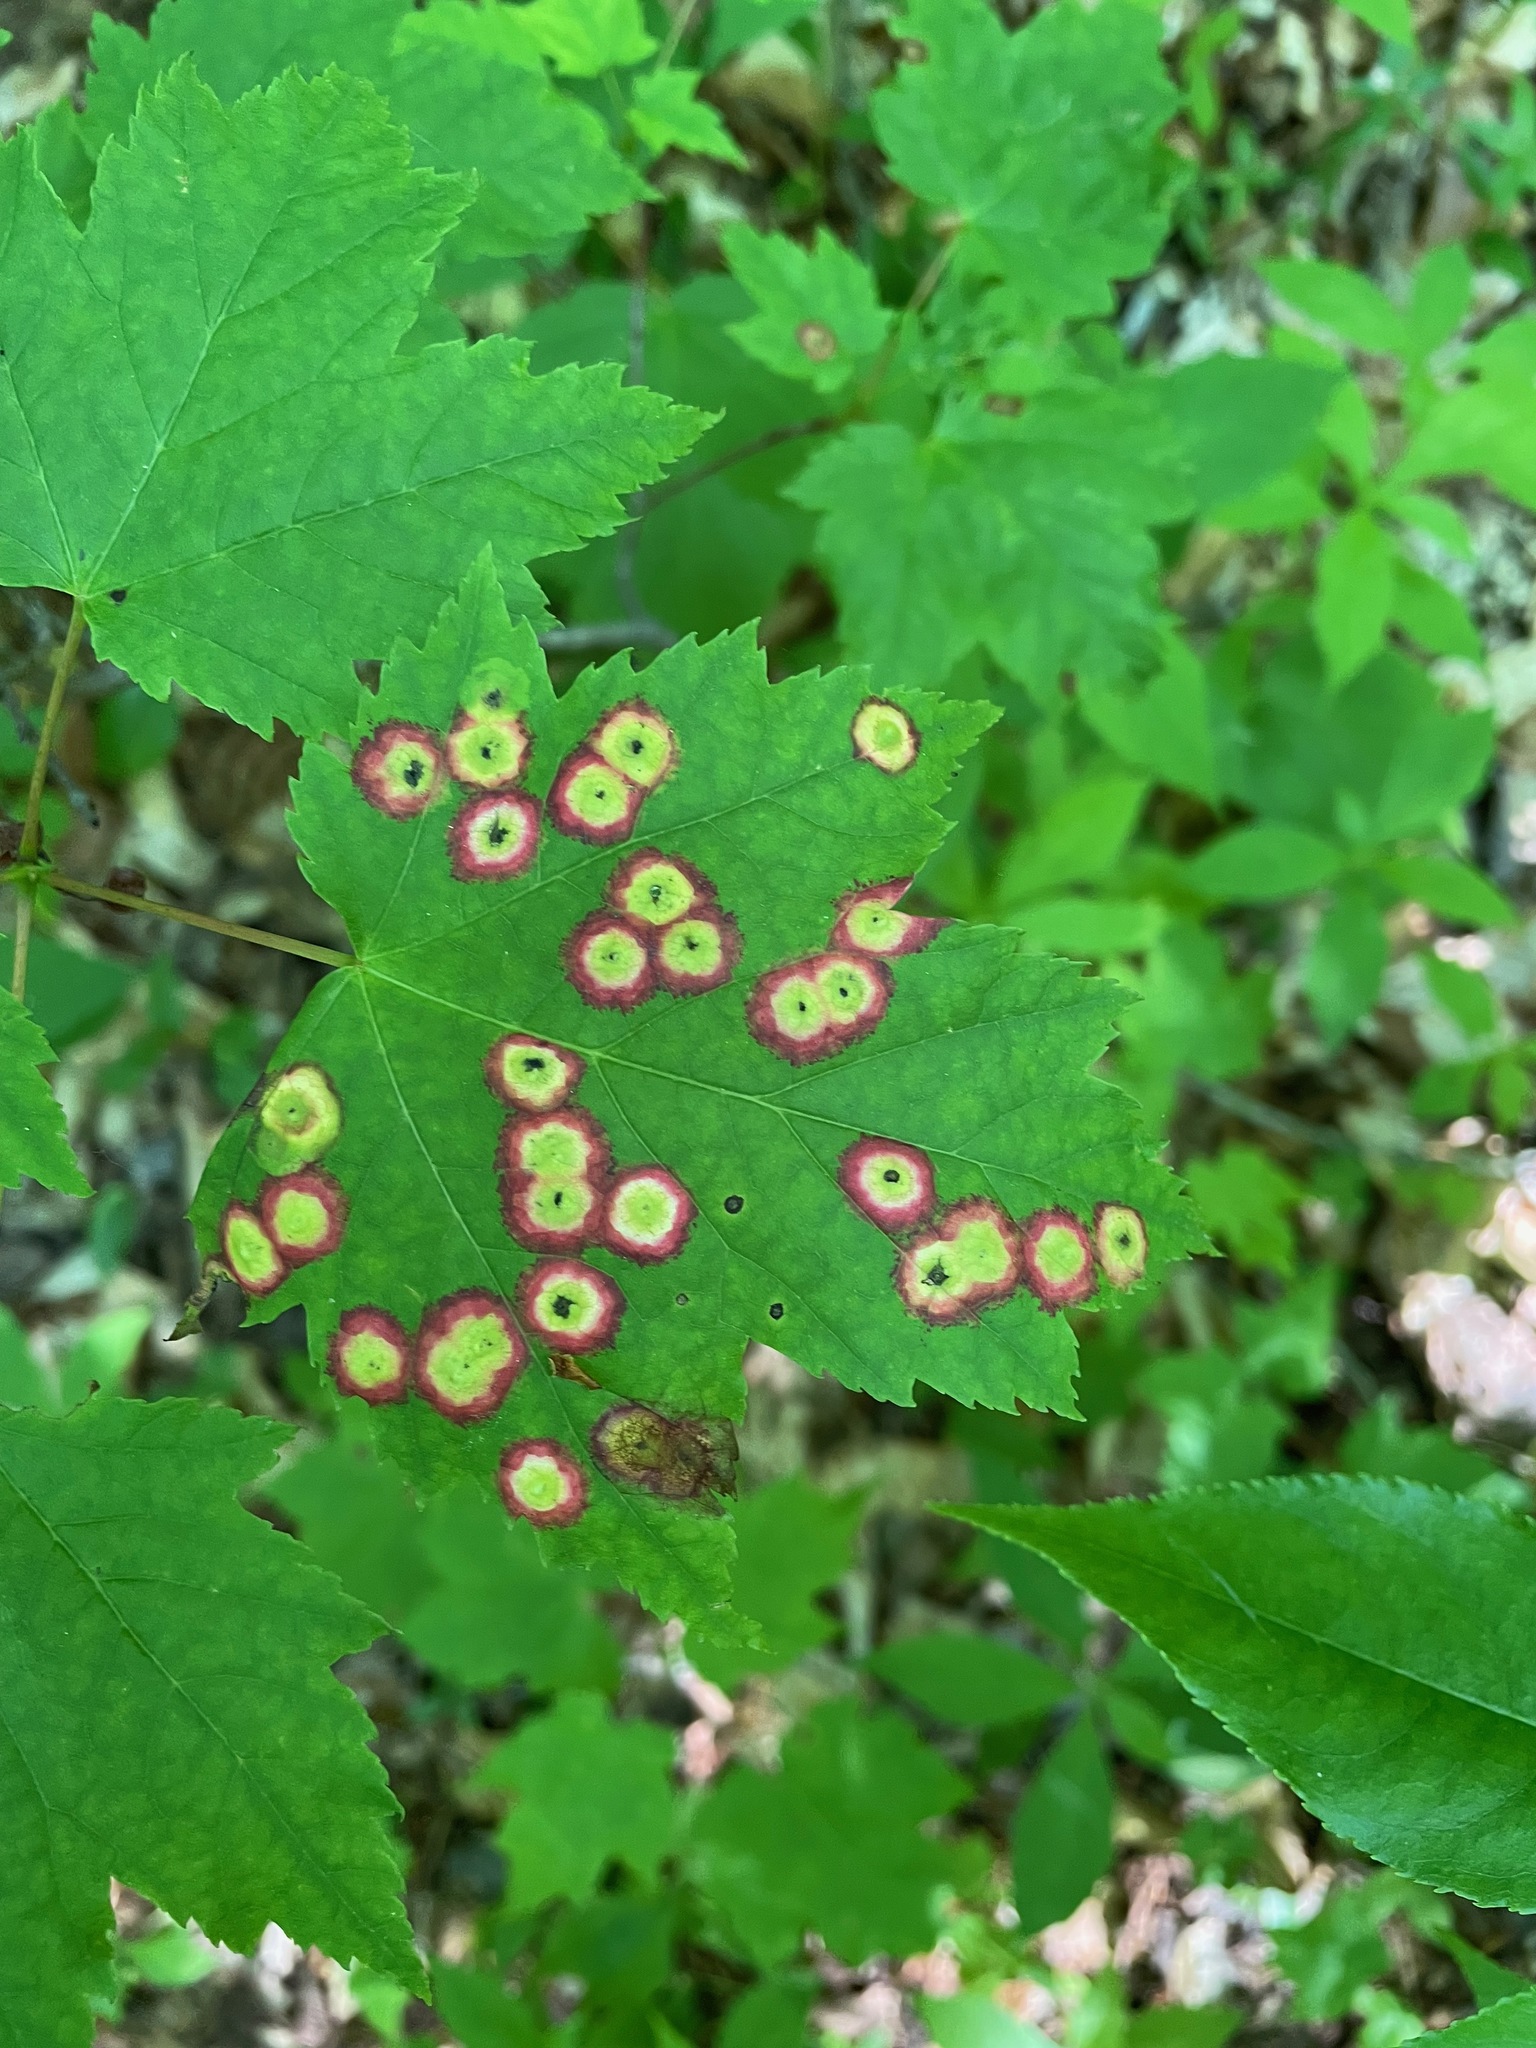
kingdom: Animalia
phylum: Arthropoda
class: Insecta
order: Diptera
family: Cecidomyiidae
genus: Acericecis
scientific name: Acericecis ocellaris
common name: Ocellate gall midge
